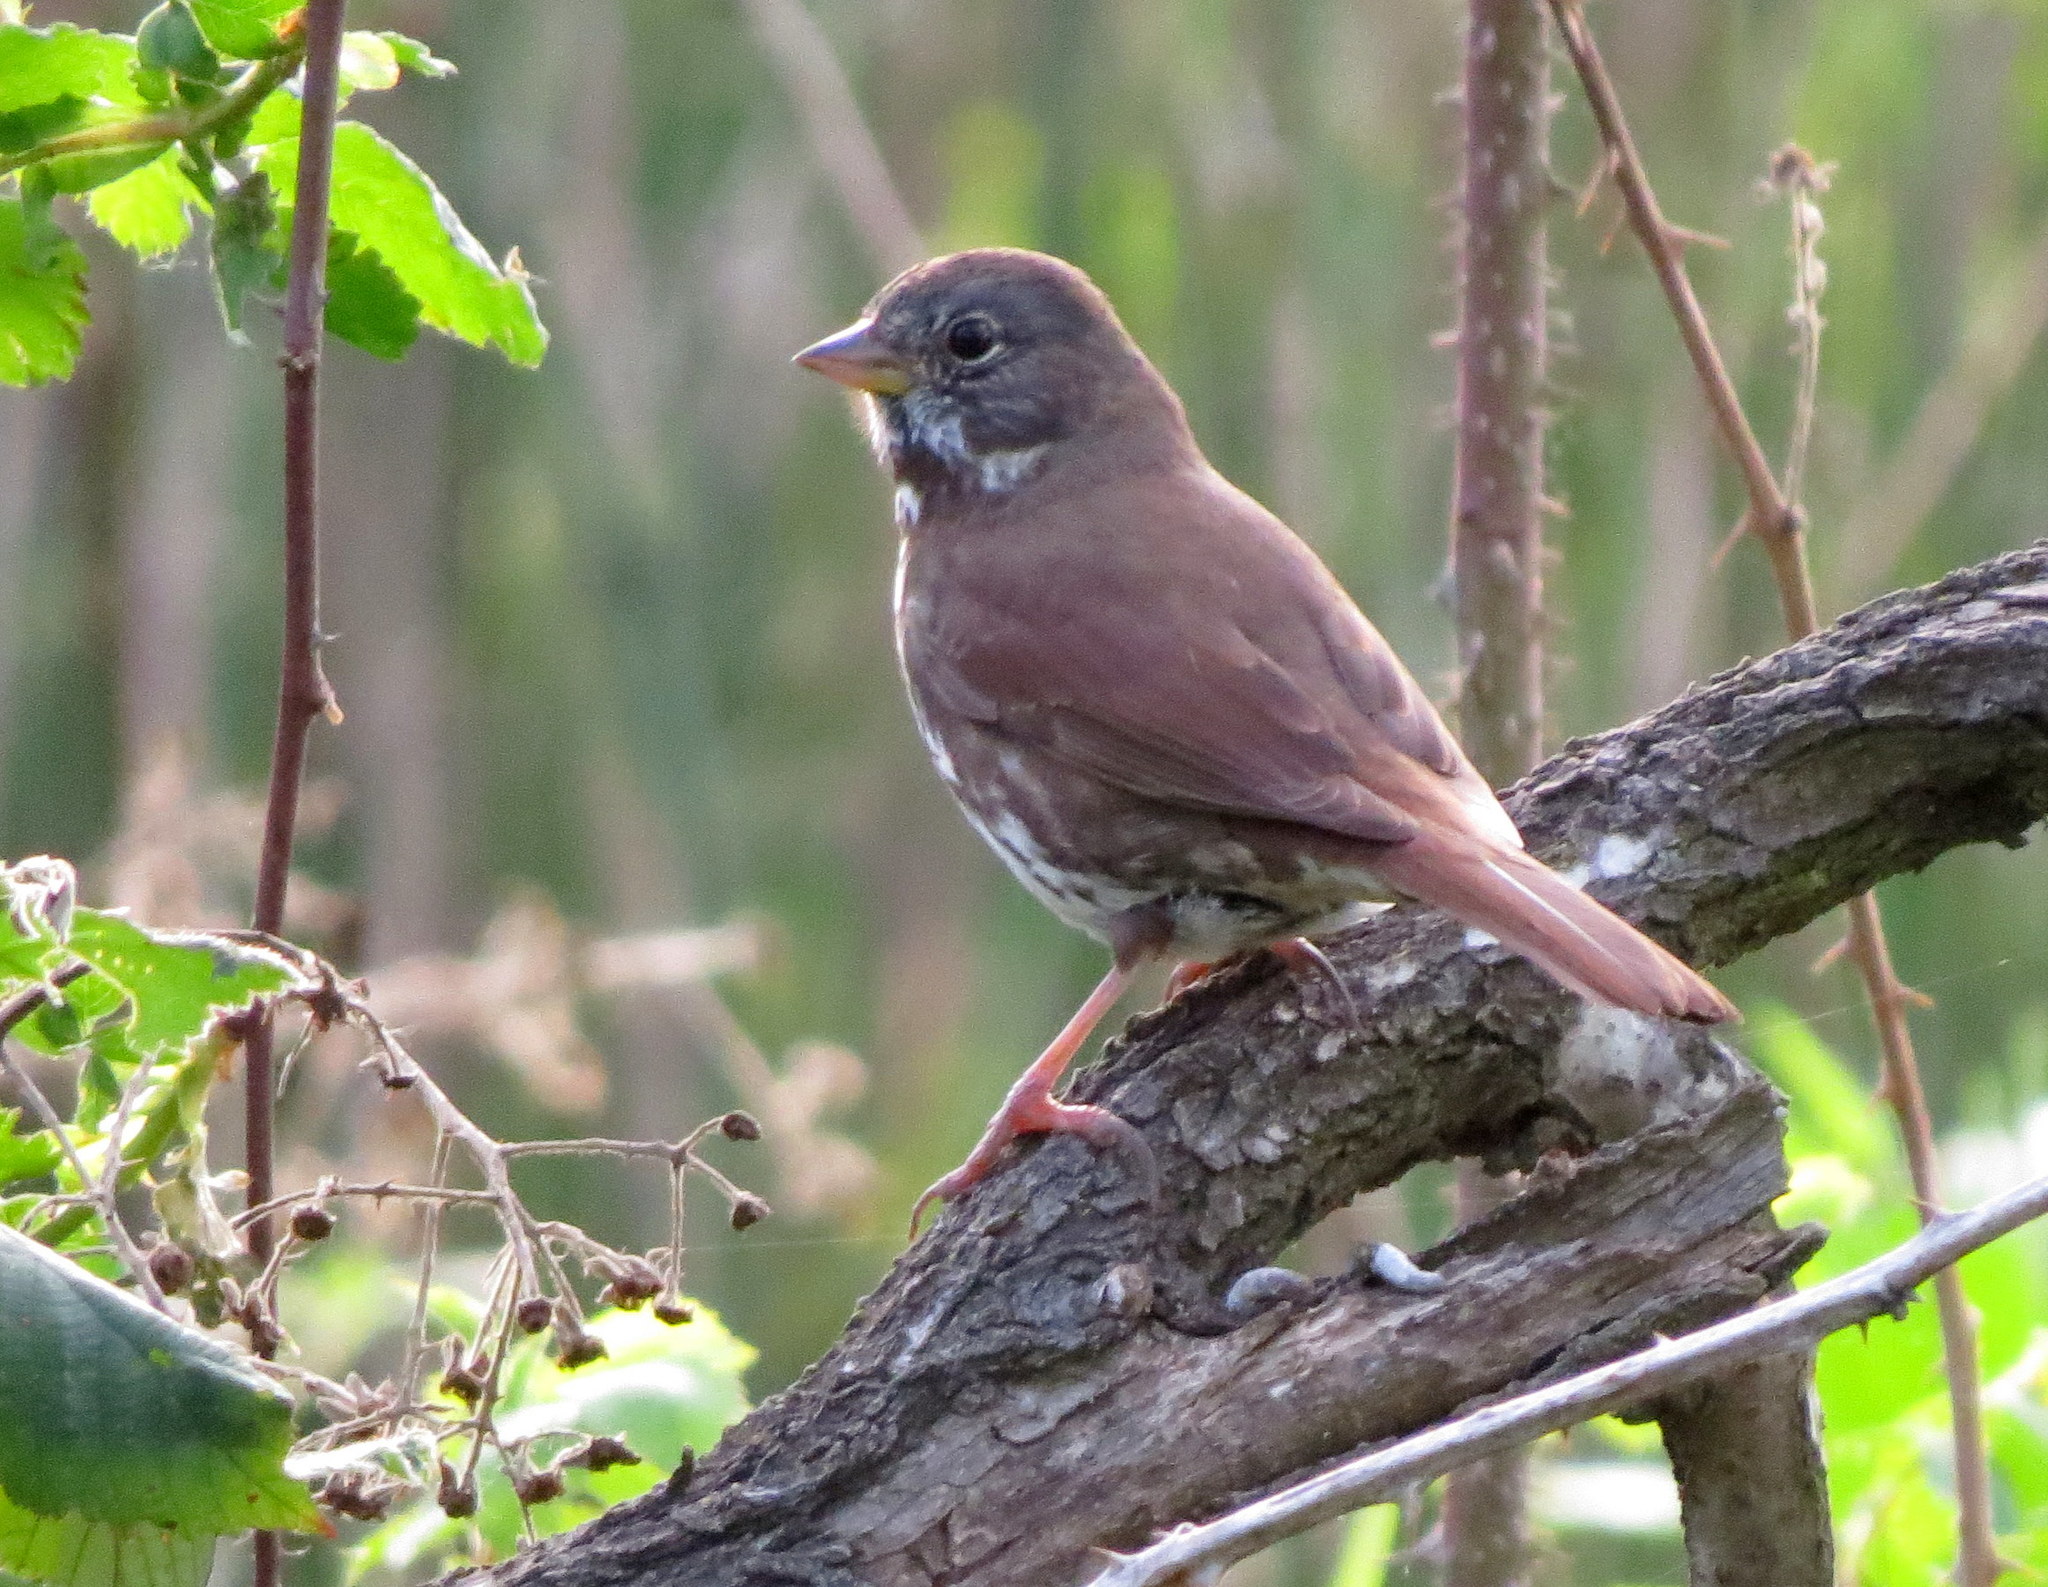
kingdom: Animalia
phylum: Chordata
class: Aves
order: Passeriformes
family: Passerellidae
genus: Passerella
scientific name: Passerella iliaca
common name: Fox sparrow
